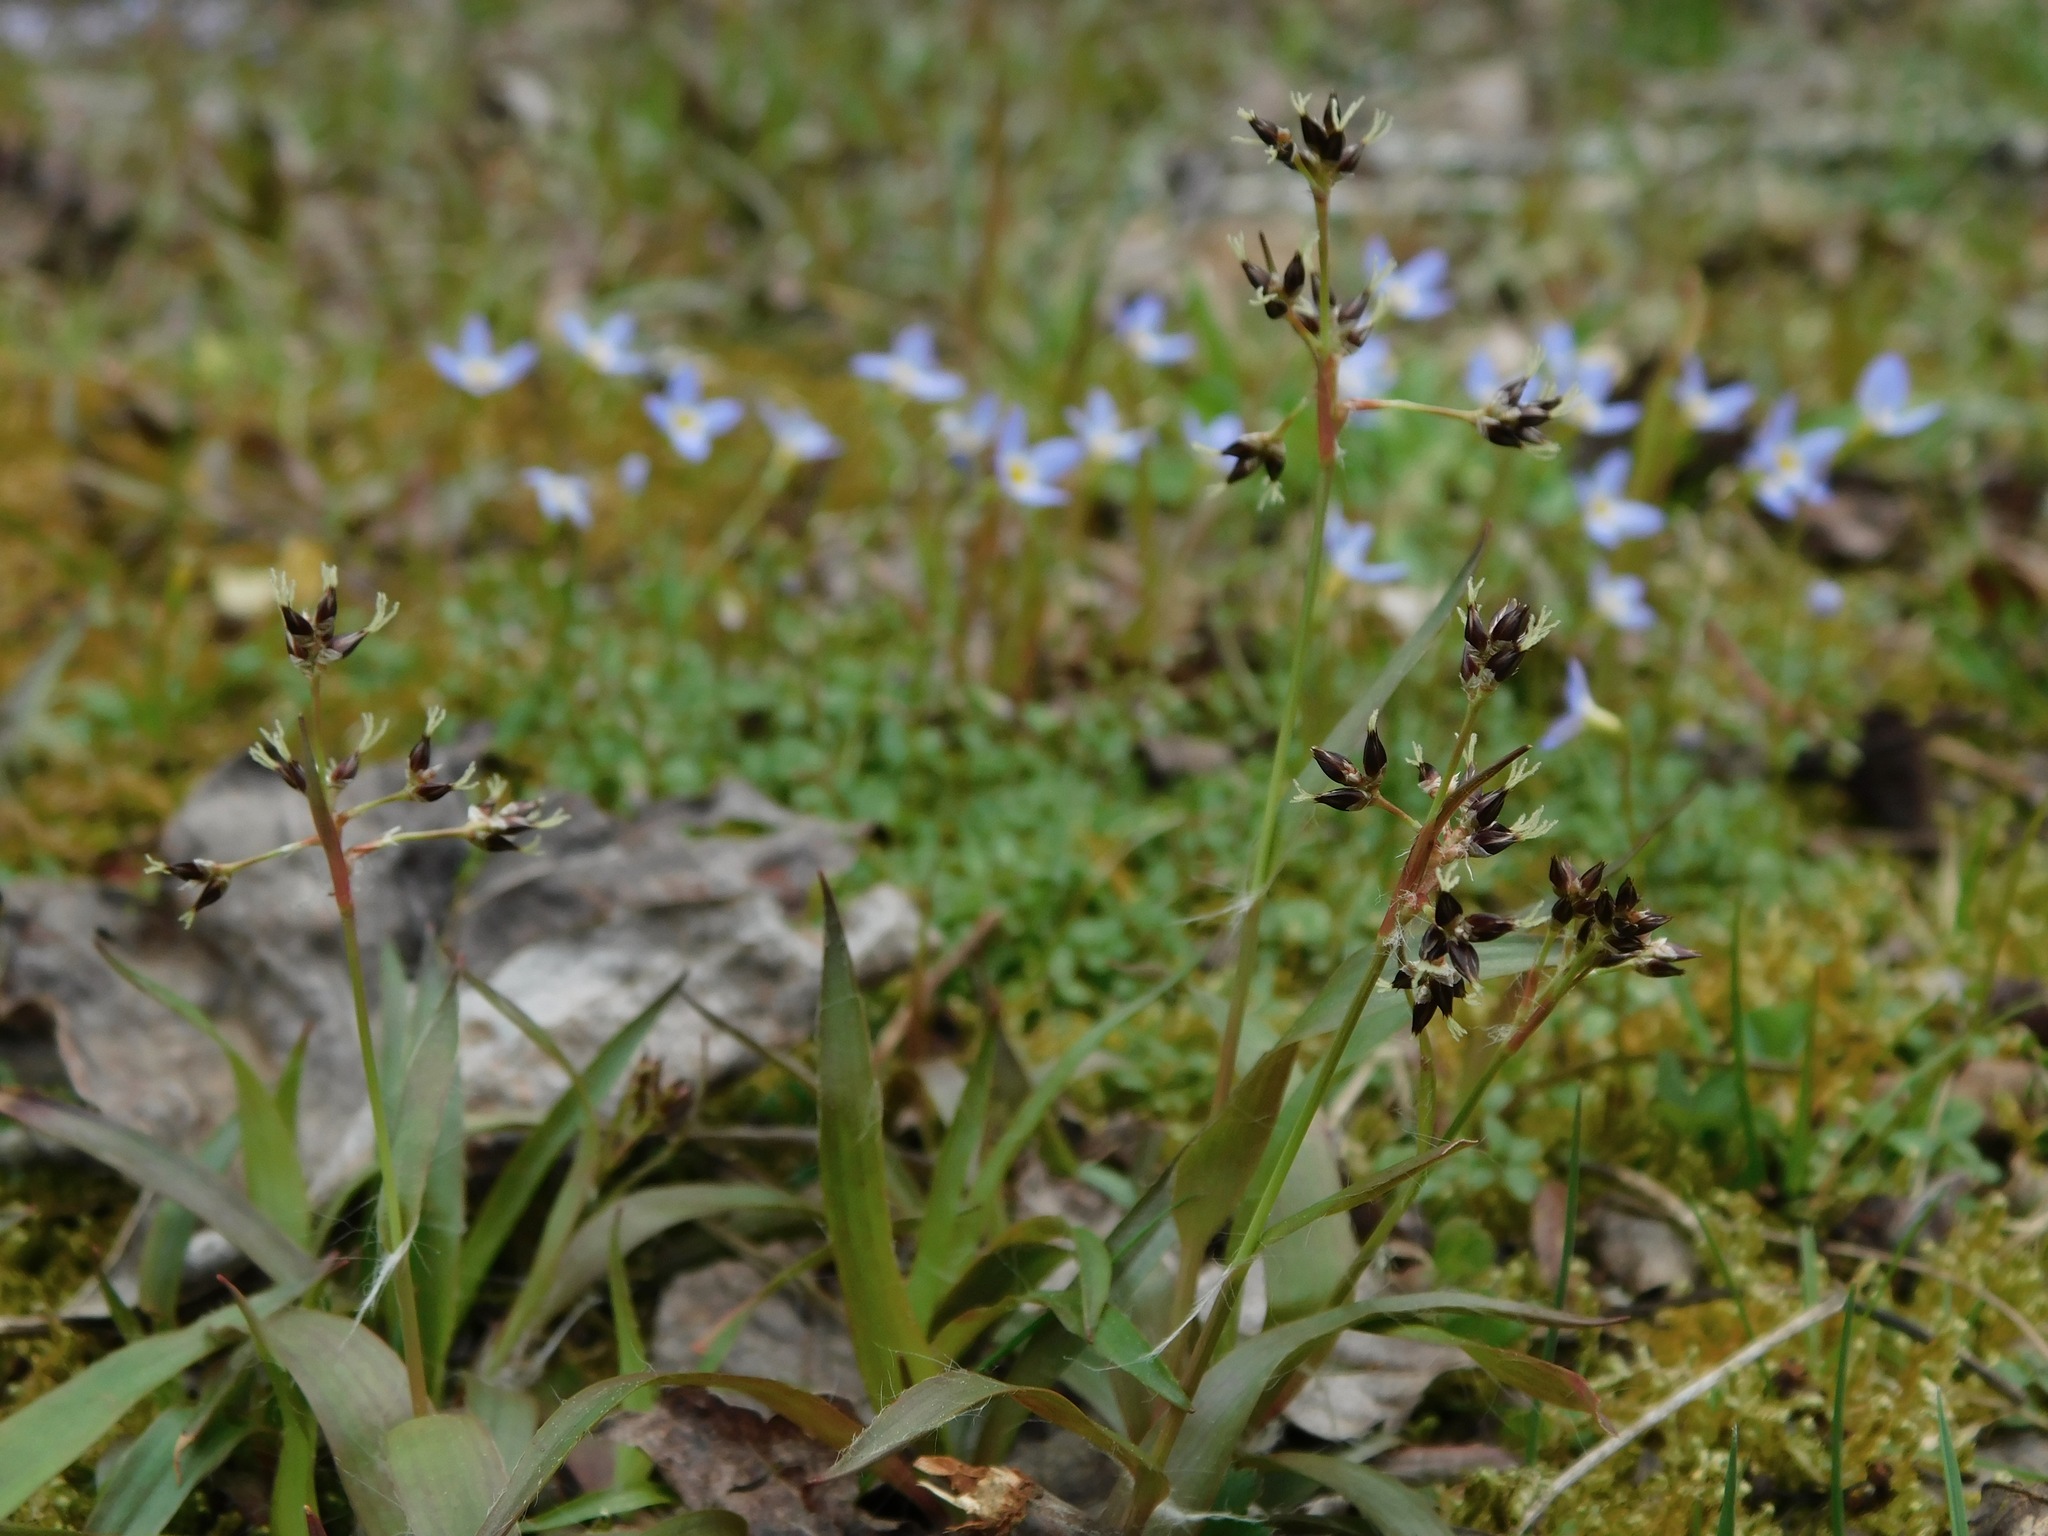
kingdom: Plantae
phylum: Tracheophyta
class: Liliopsida
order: Poales
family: Juncaceae
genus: Luzula
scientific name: Luzula echinata
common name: Hedgehog woodrush
